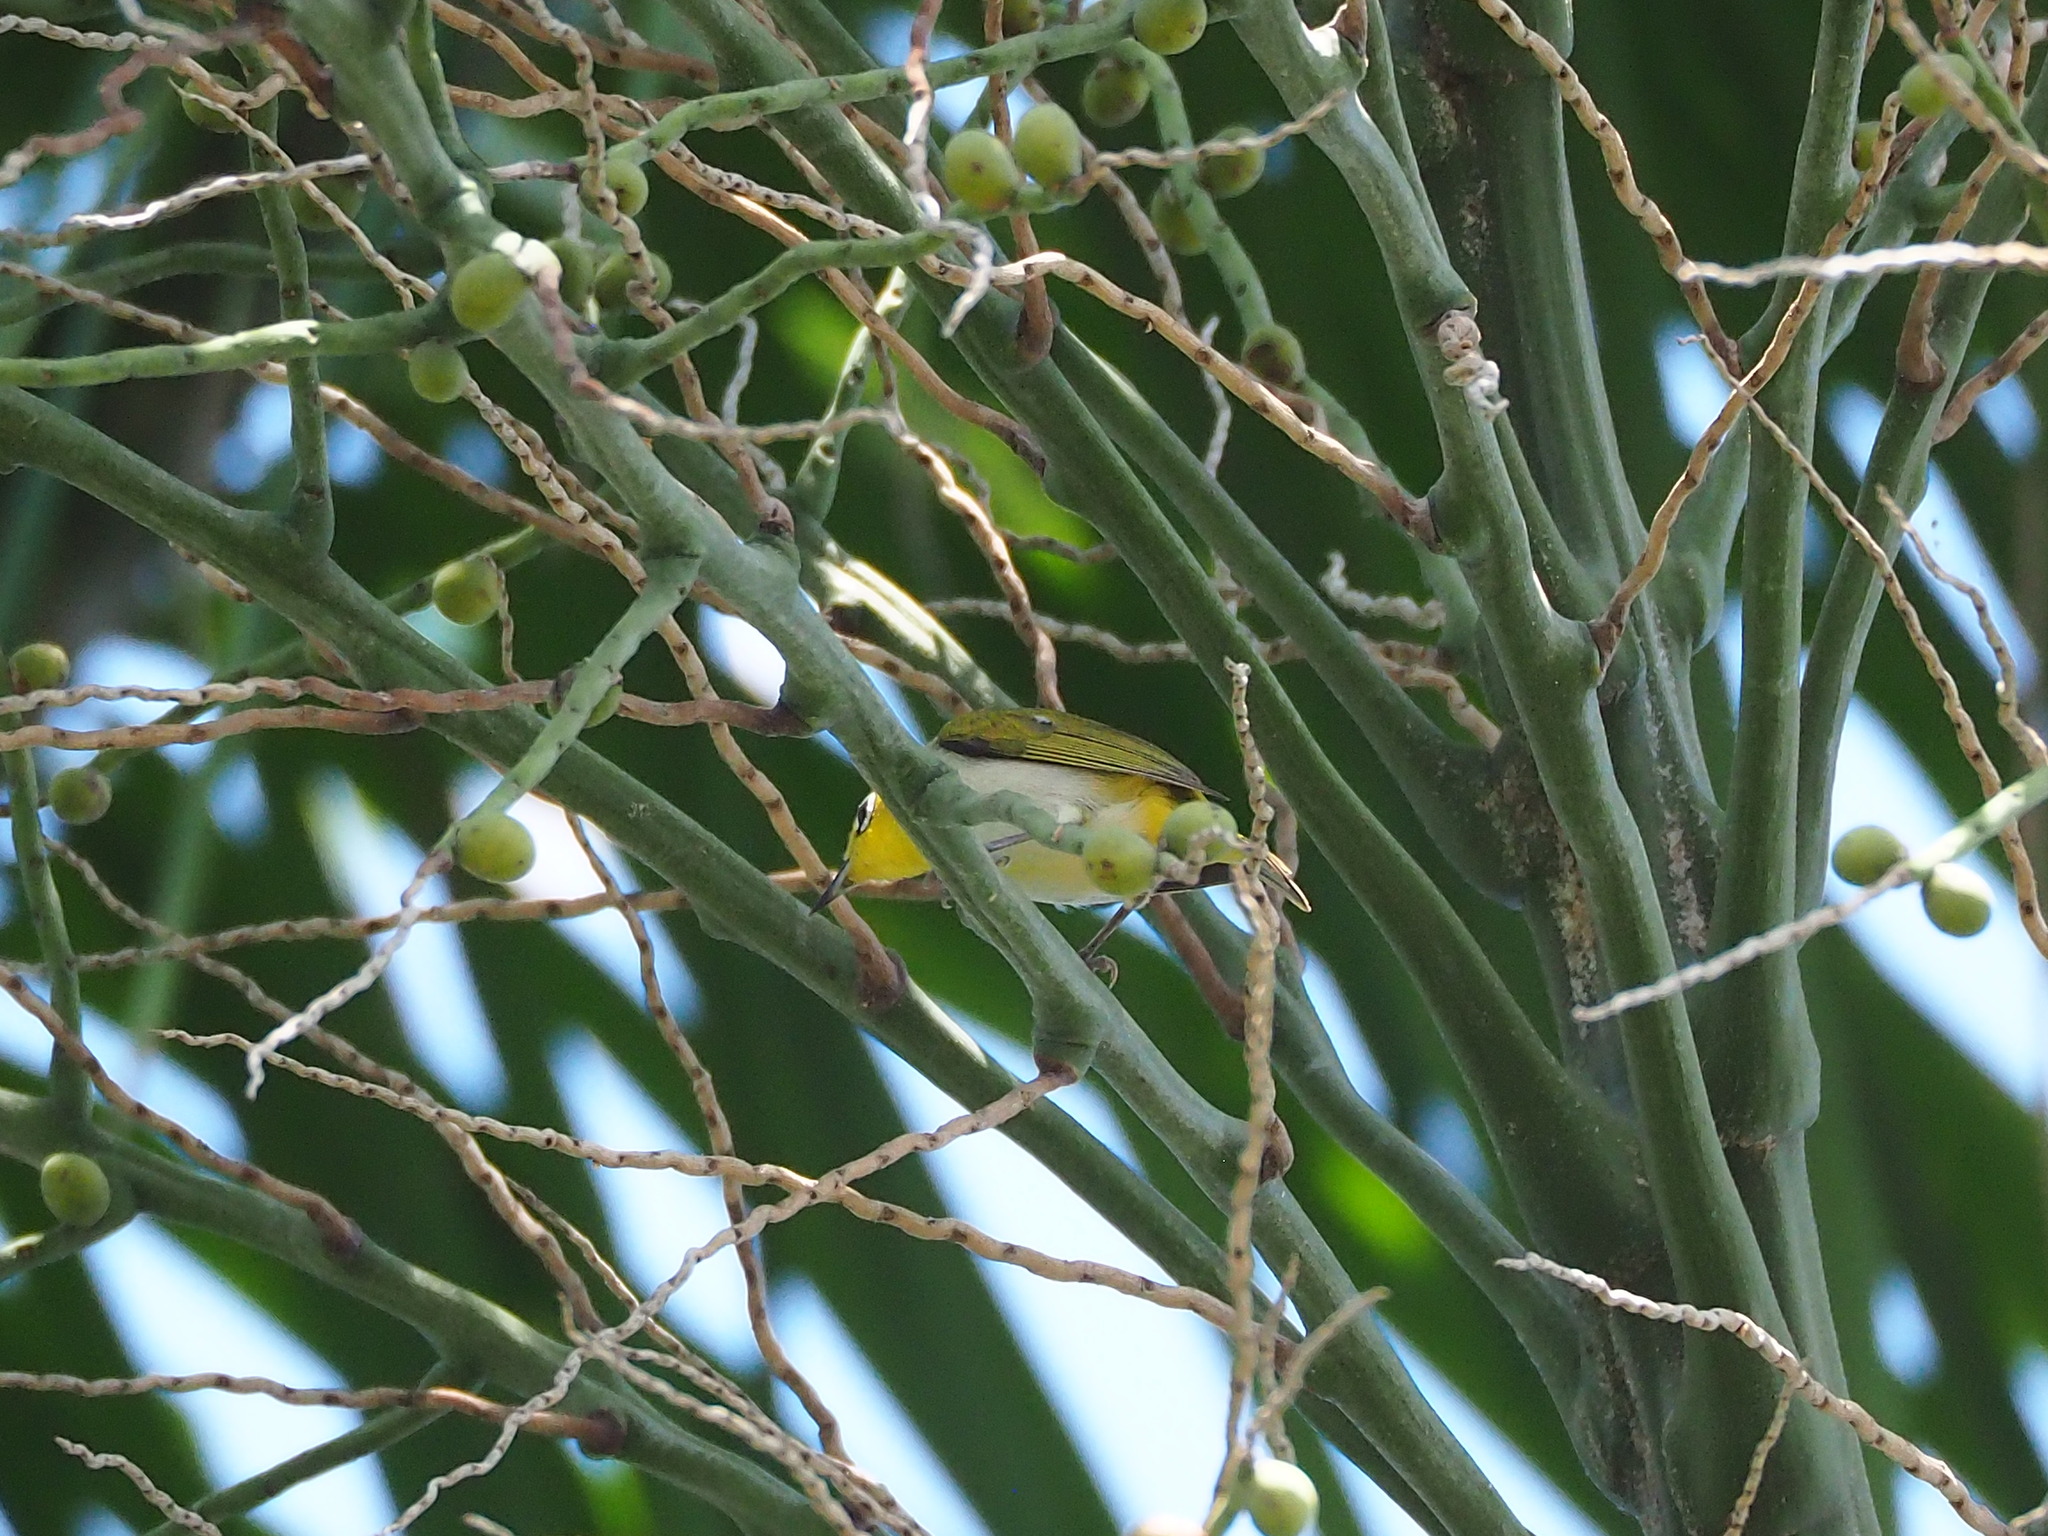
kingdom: Animalia
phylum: Chordata
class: Aves
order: Passeriformes
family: Zosteropidae
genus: Zosterops
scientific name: Zosterops simplex
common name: Swinhoe's white-eye
